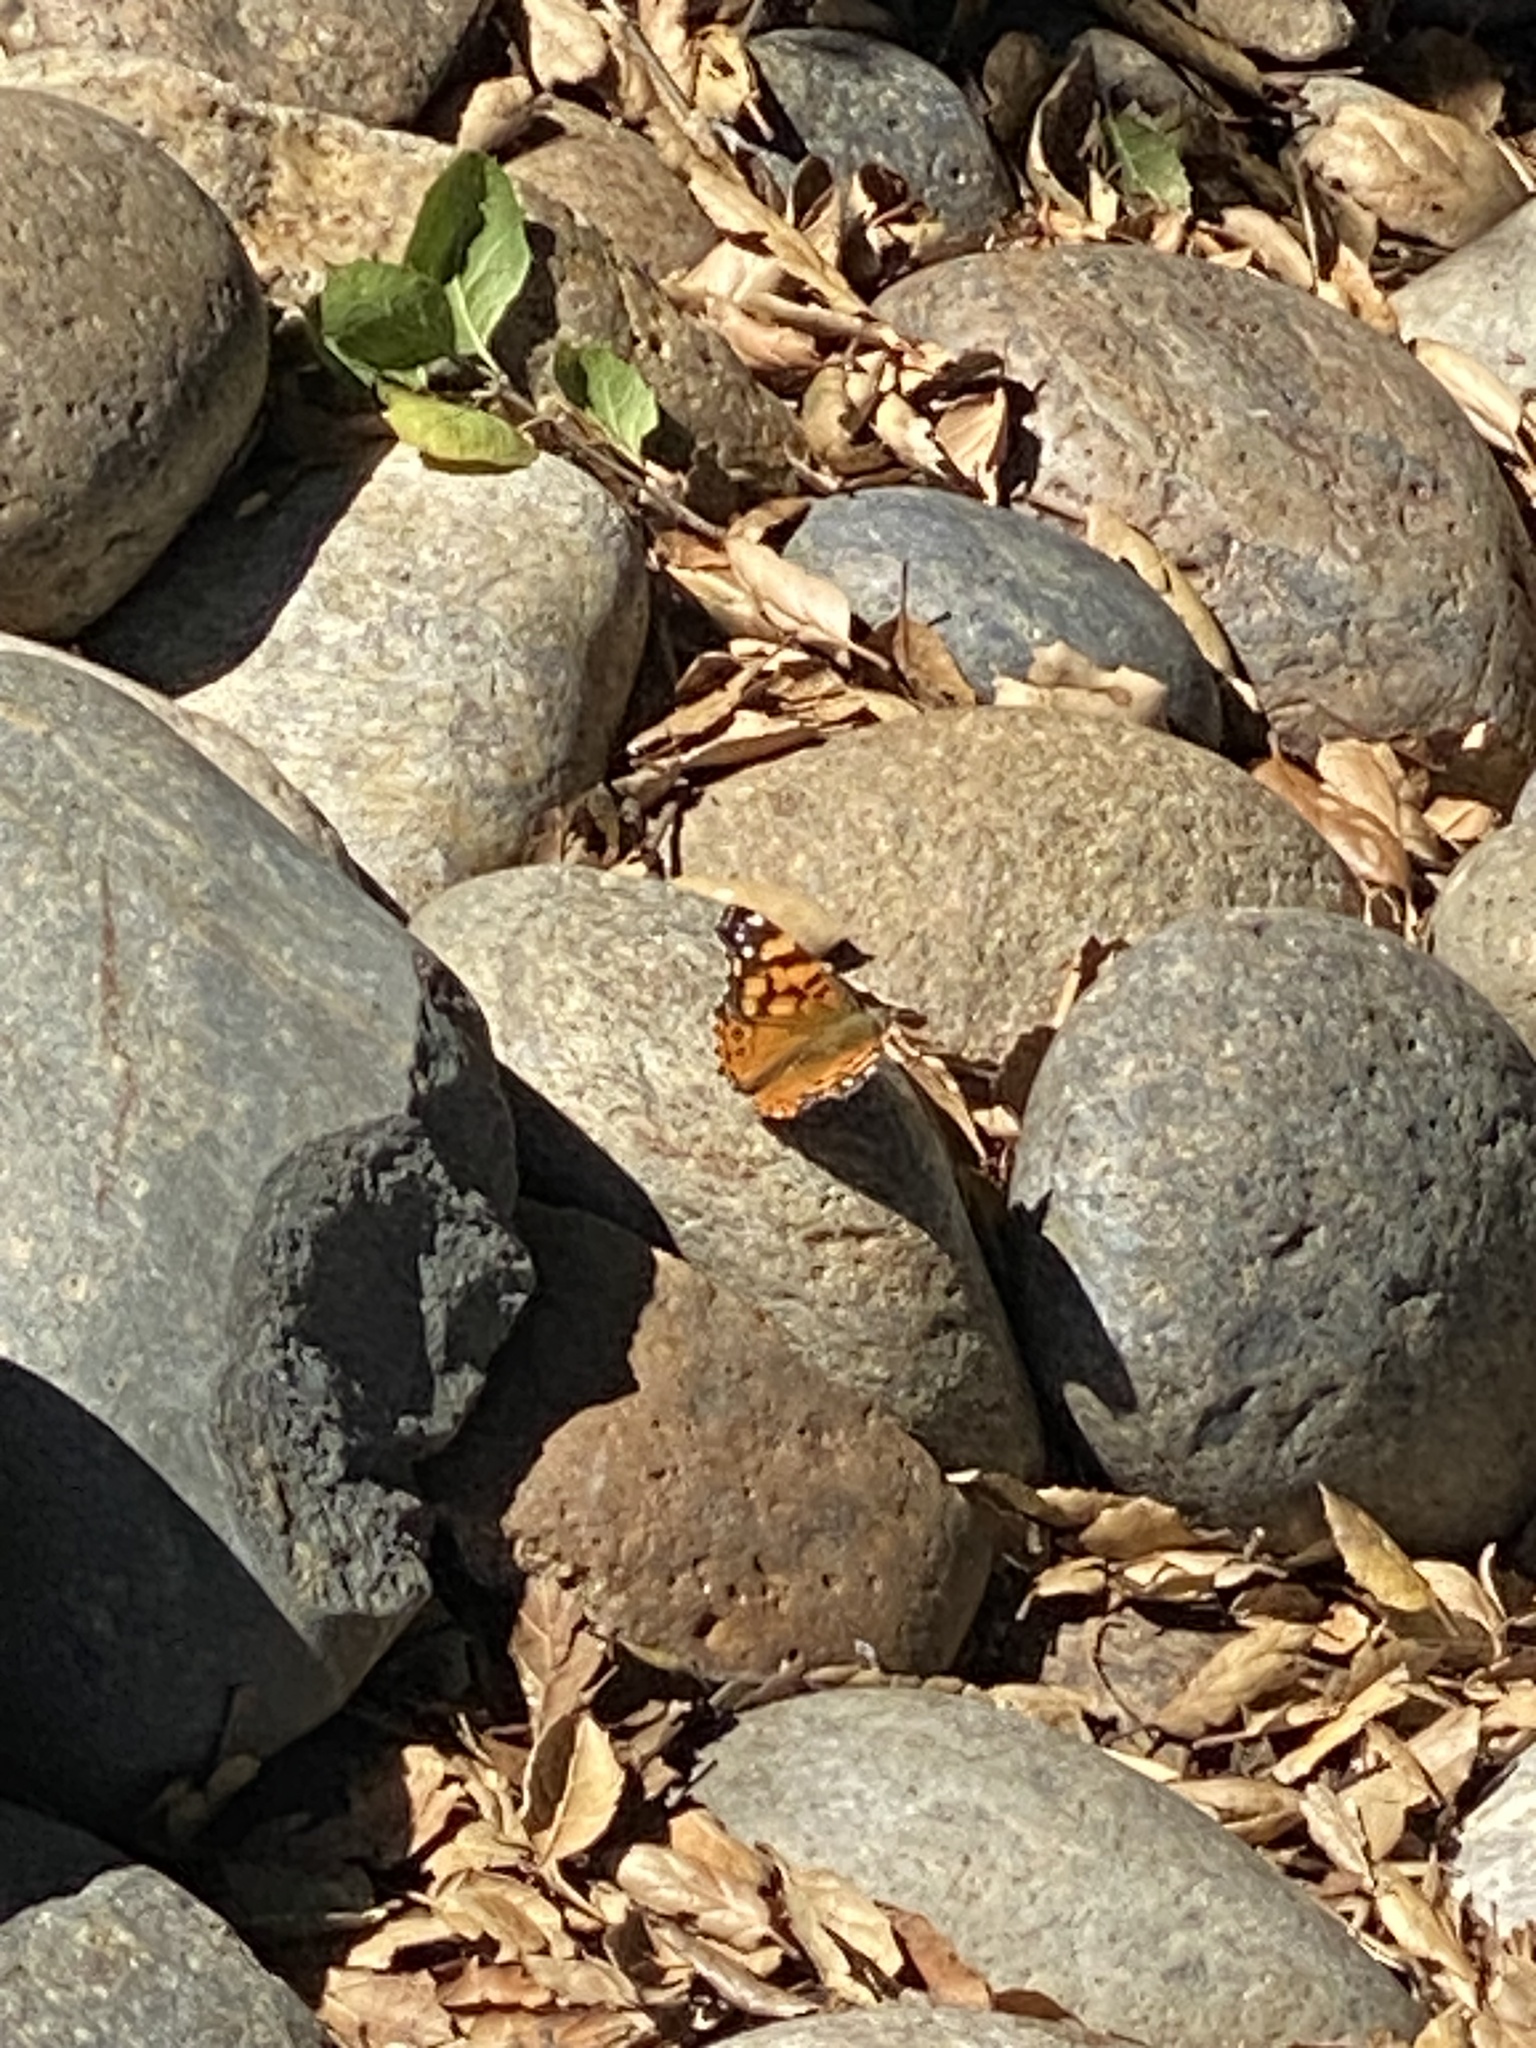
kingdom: Animalia
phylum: Arthropoda
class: Insecta
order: Lepidoptera
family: Nymphalidae
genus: Vanessa
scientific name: Vanessa annabella
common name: West coast lady
